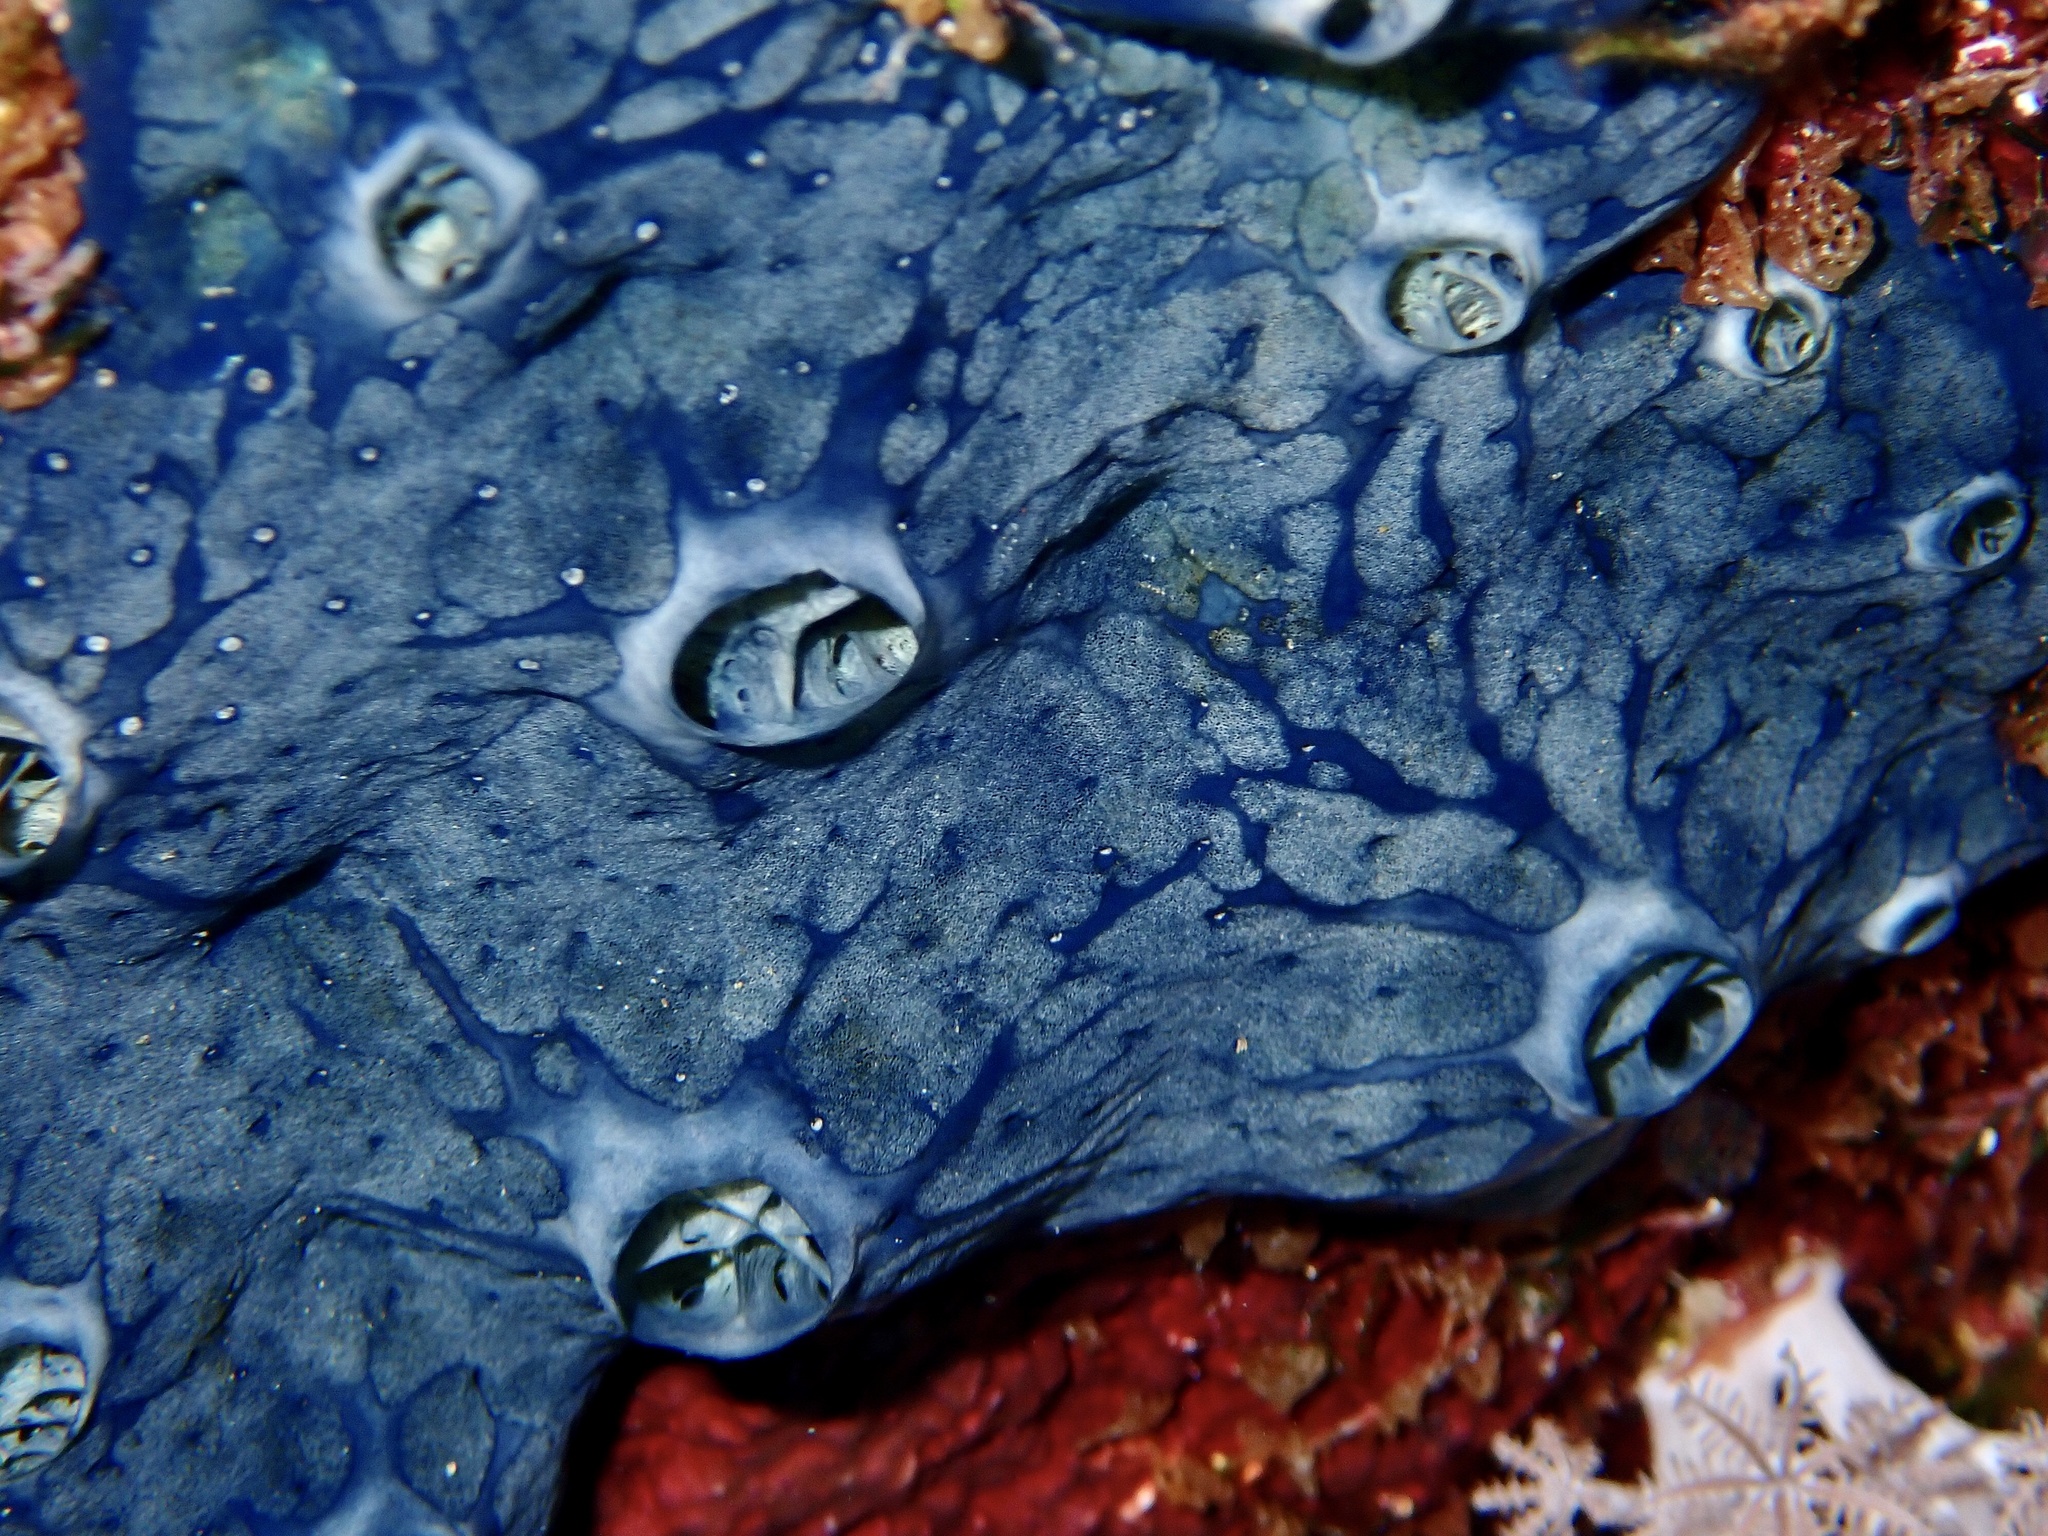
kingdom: Animalia
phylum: Porifera
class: Demospongiae
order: Poecilosclerida
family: Hymedesmiidae
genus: Hemimycale
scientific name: Hemimycale arabica
